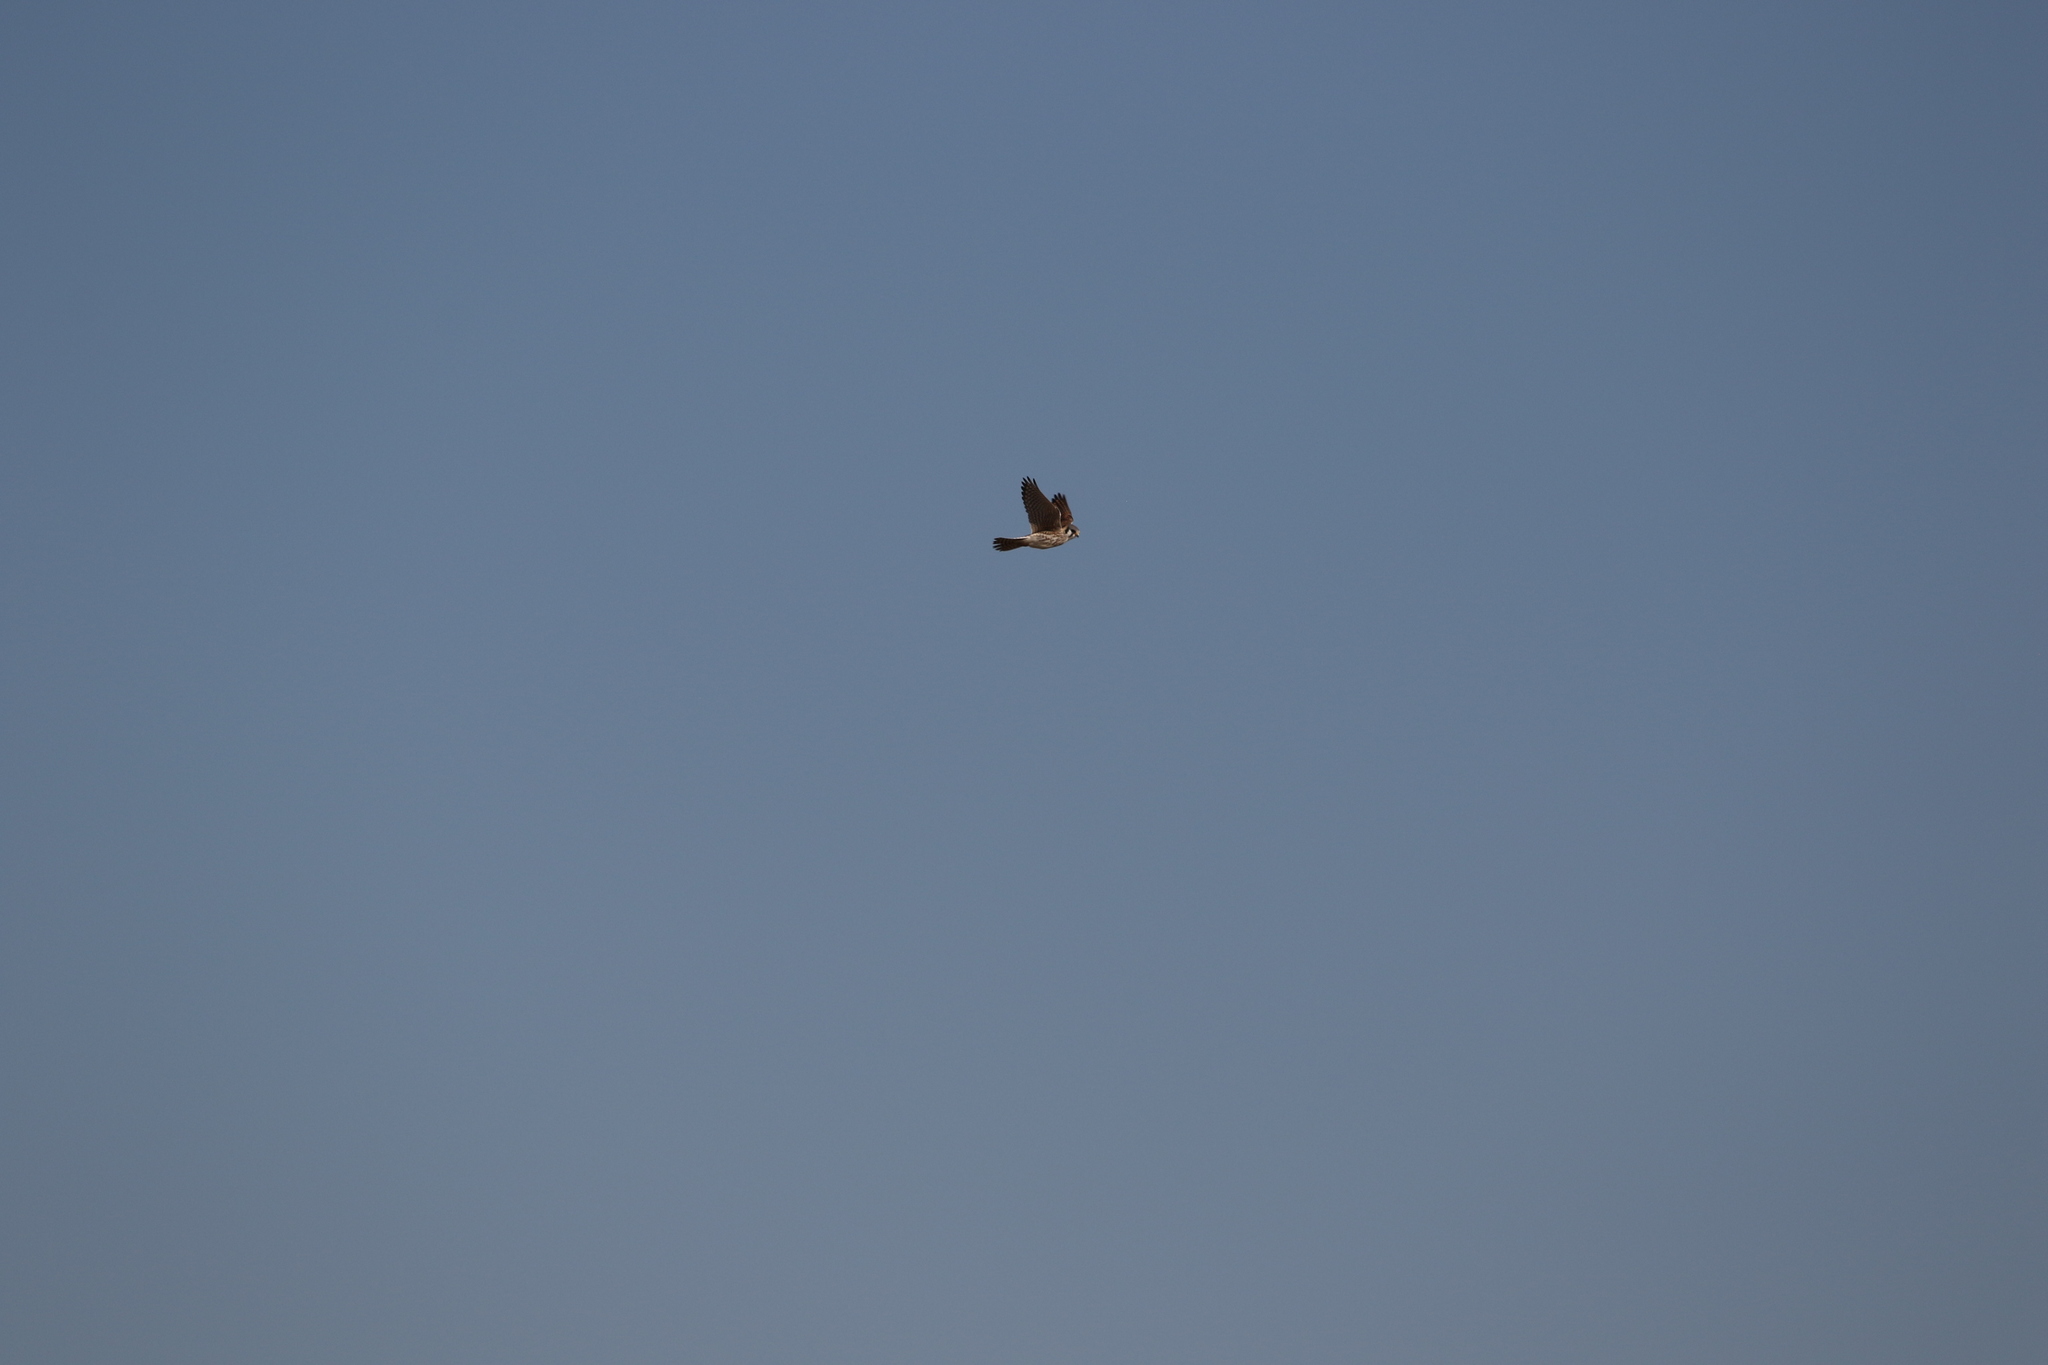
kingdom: Animalia
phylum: Chordata
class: Aves
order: Falconiformes
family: Falconidae
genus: Falco
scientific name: Falco sparverius
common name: American kestrel
